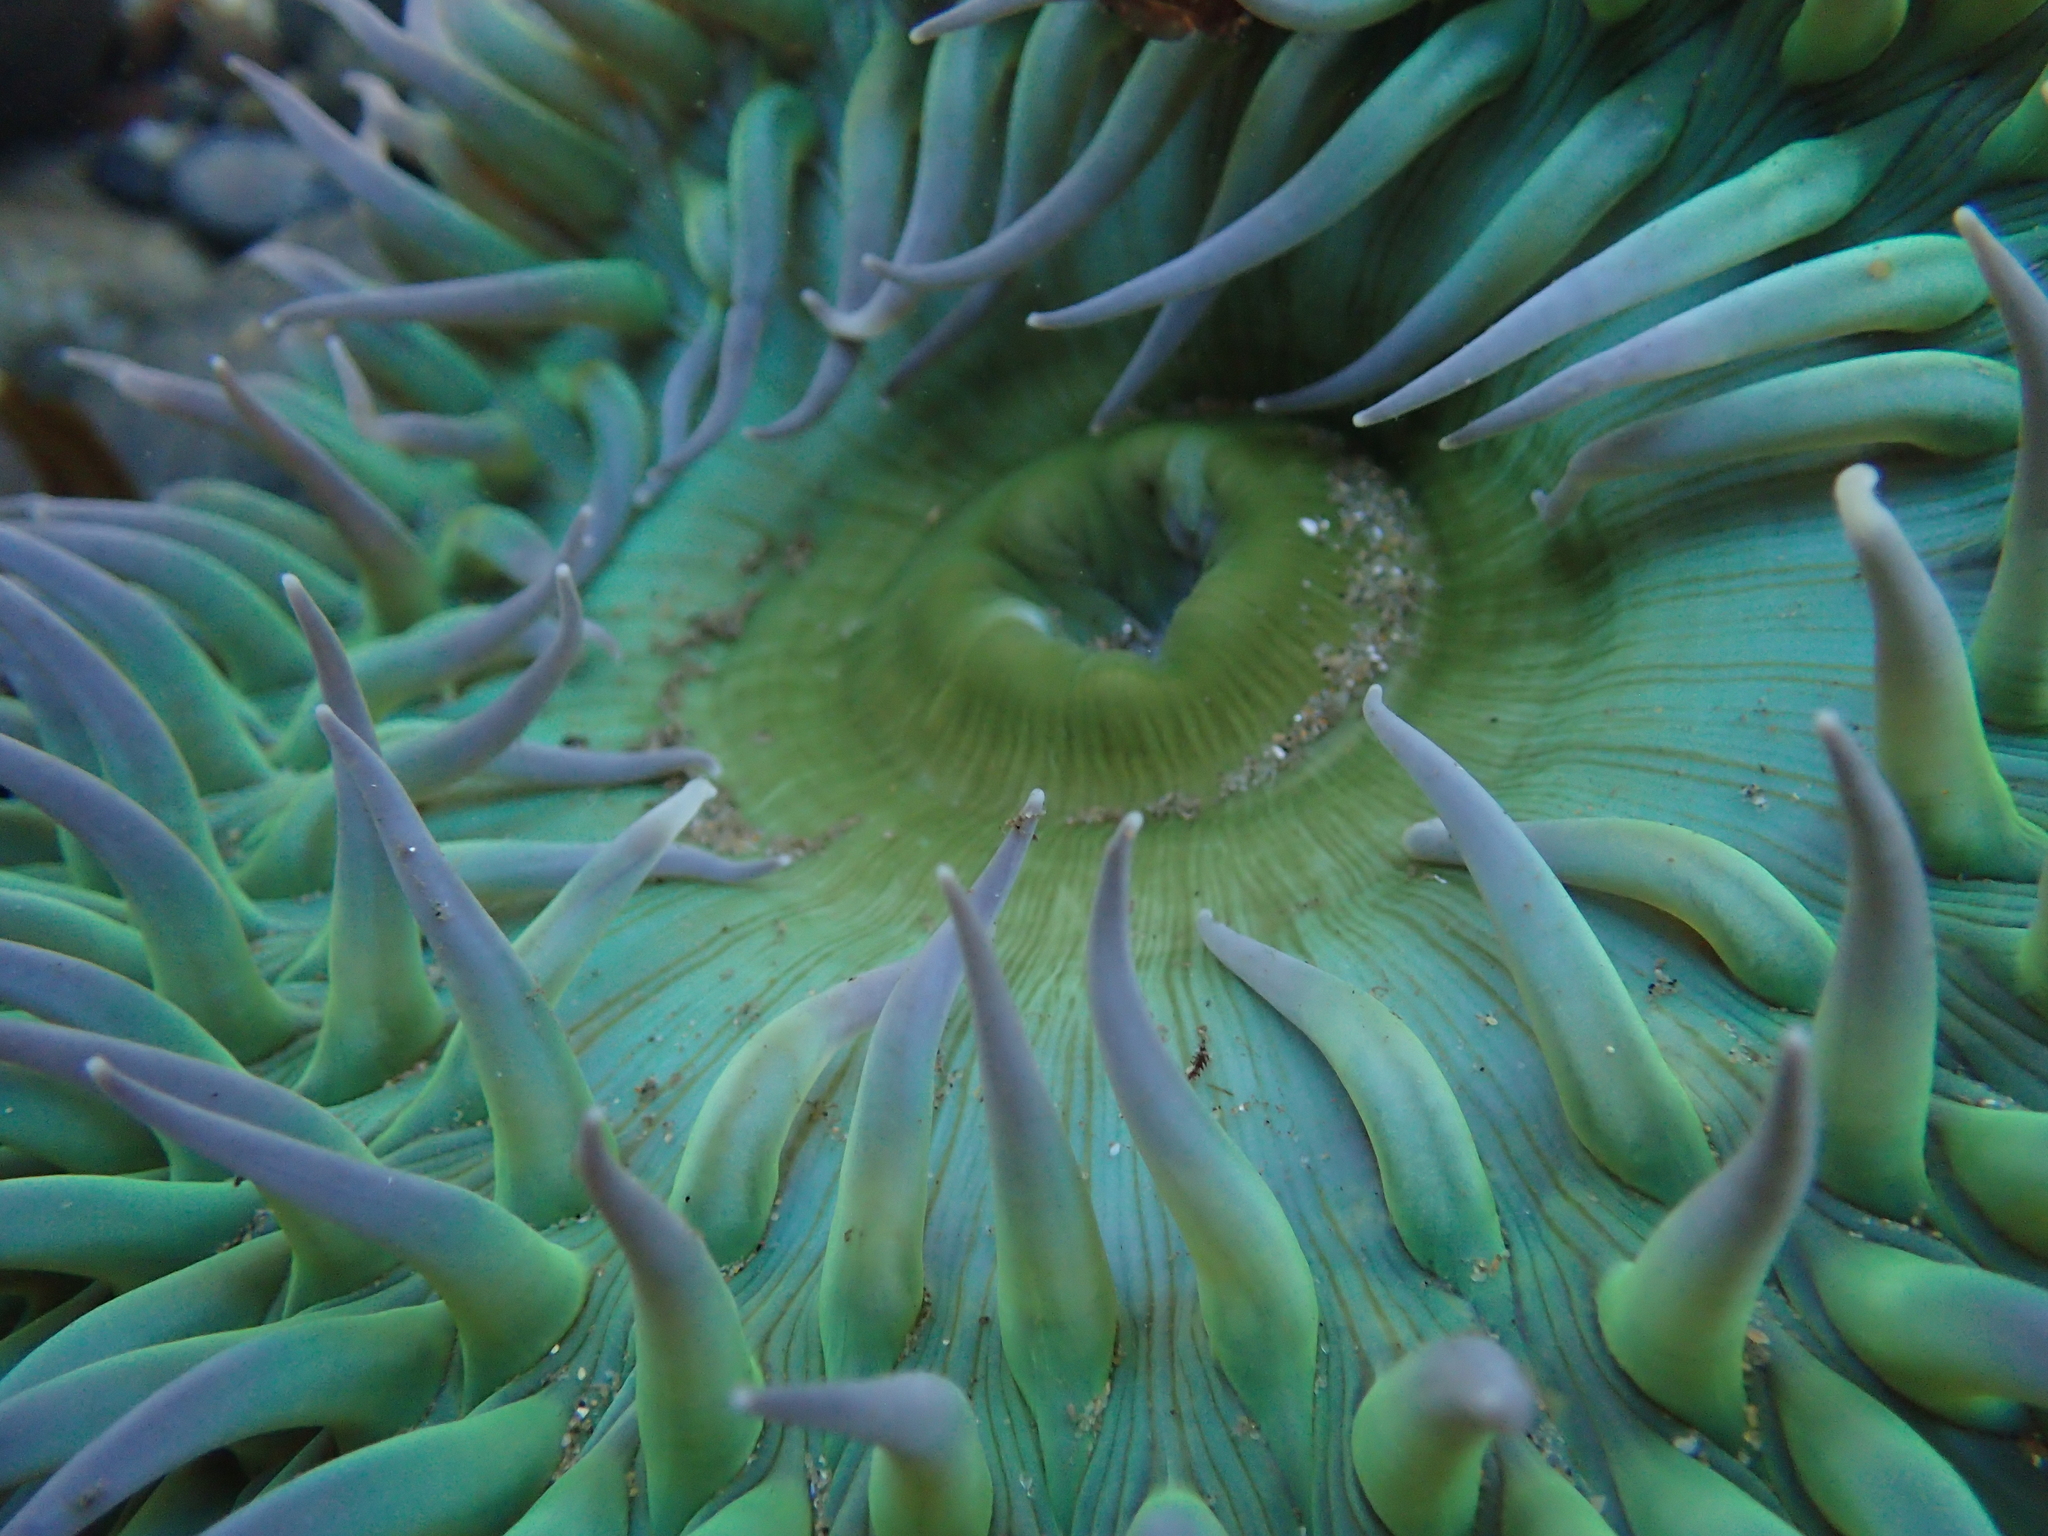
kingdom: Animalia
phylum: Cnidaria
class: Anthozoa
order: Actiniaria
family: Actiniidae
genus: Anthopleura
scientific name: Anthopleura xanthogrammica
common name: Giant green anemone
